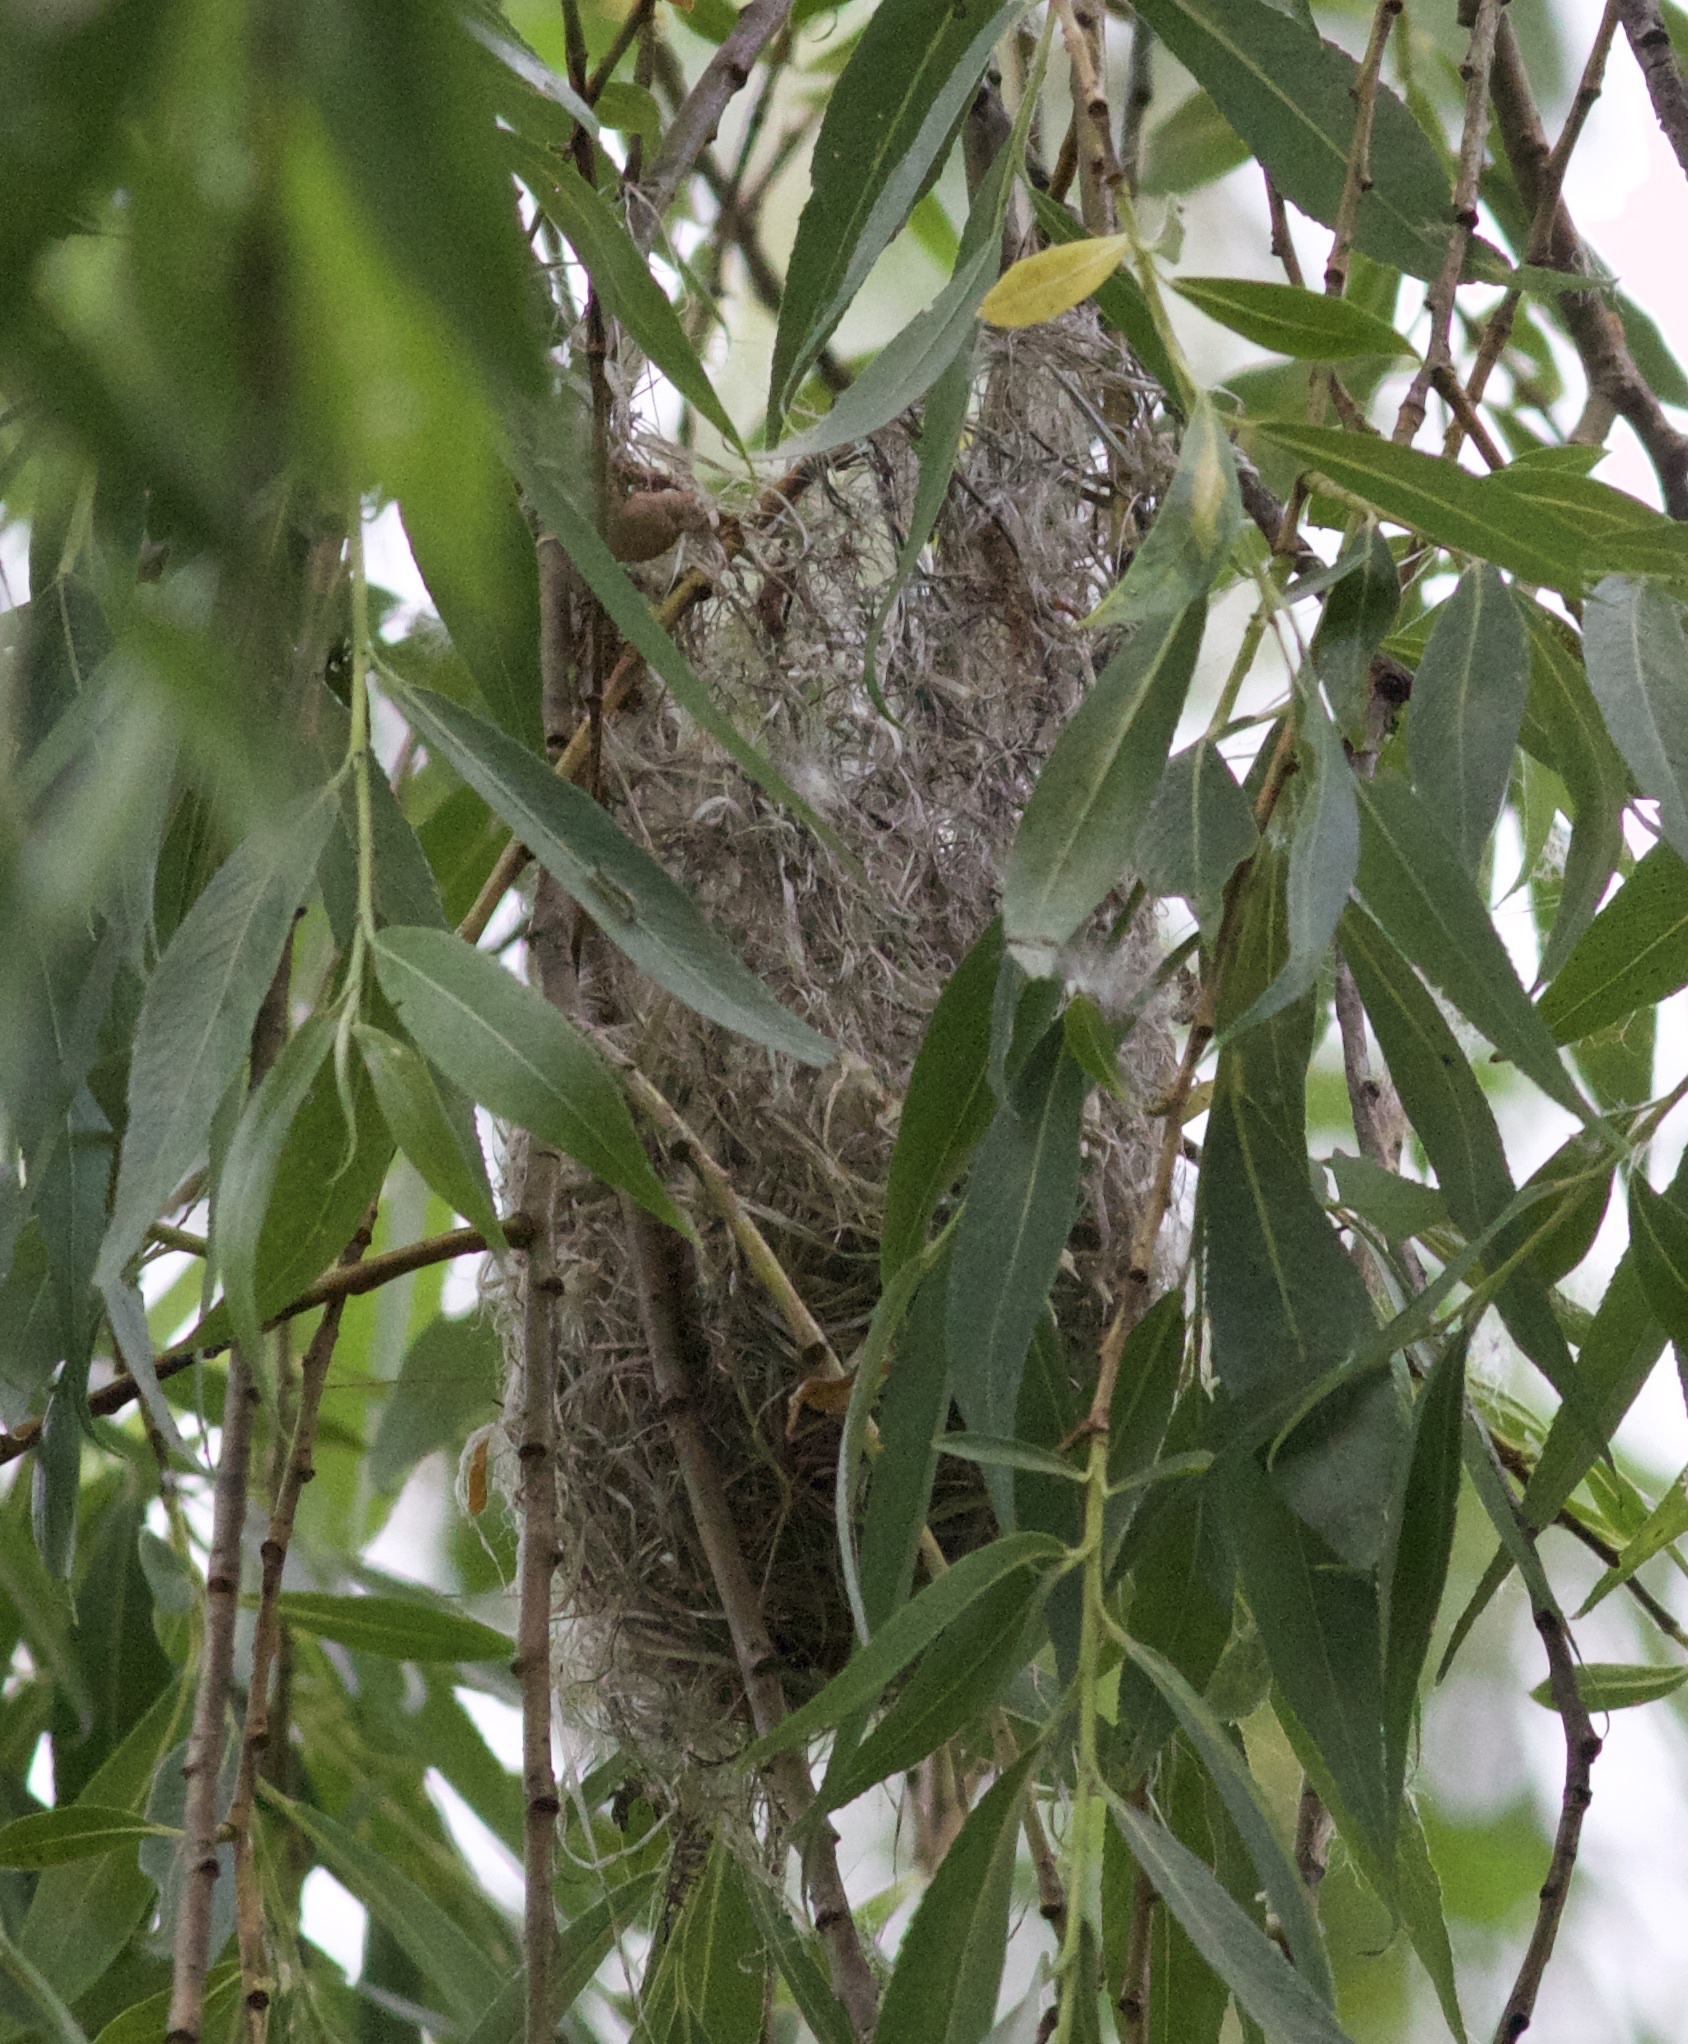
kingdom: Animalia
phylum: Chordata
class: Aves
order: Passeriformes
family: Icteridae
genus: Icterus
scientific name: Icterus galbula
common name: Baltimore oriole
